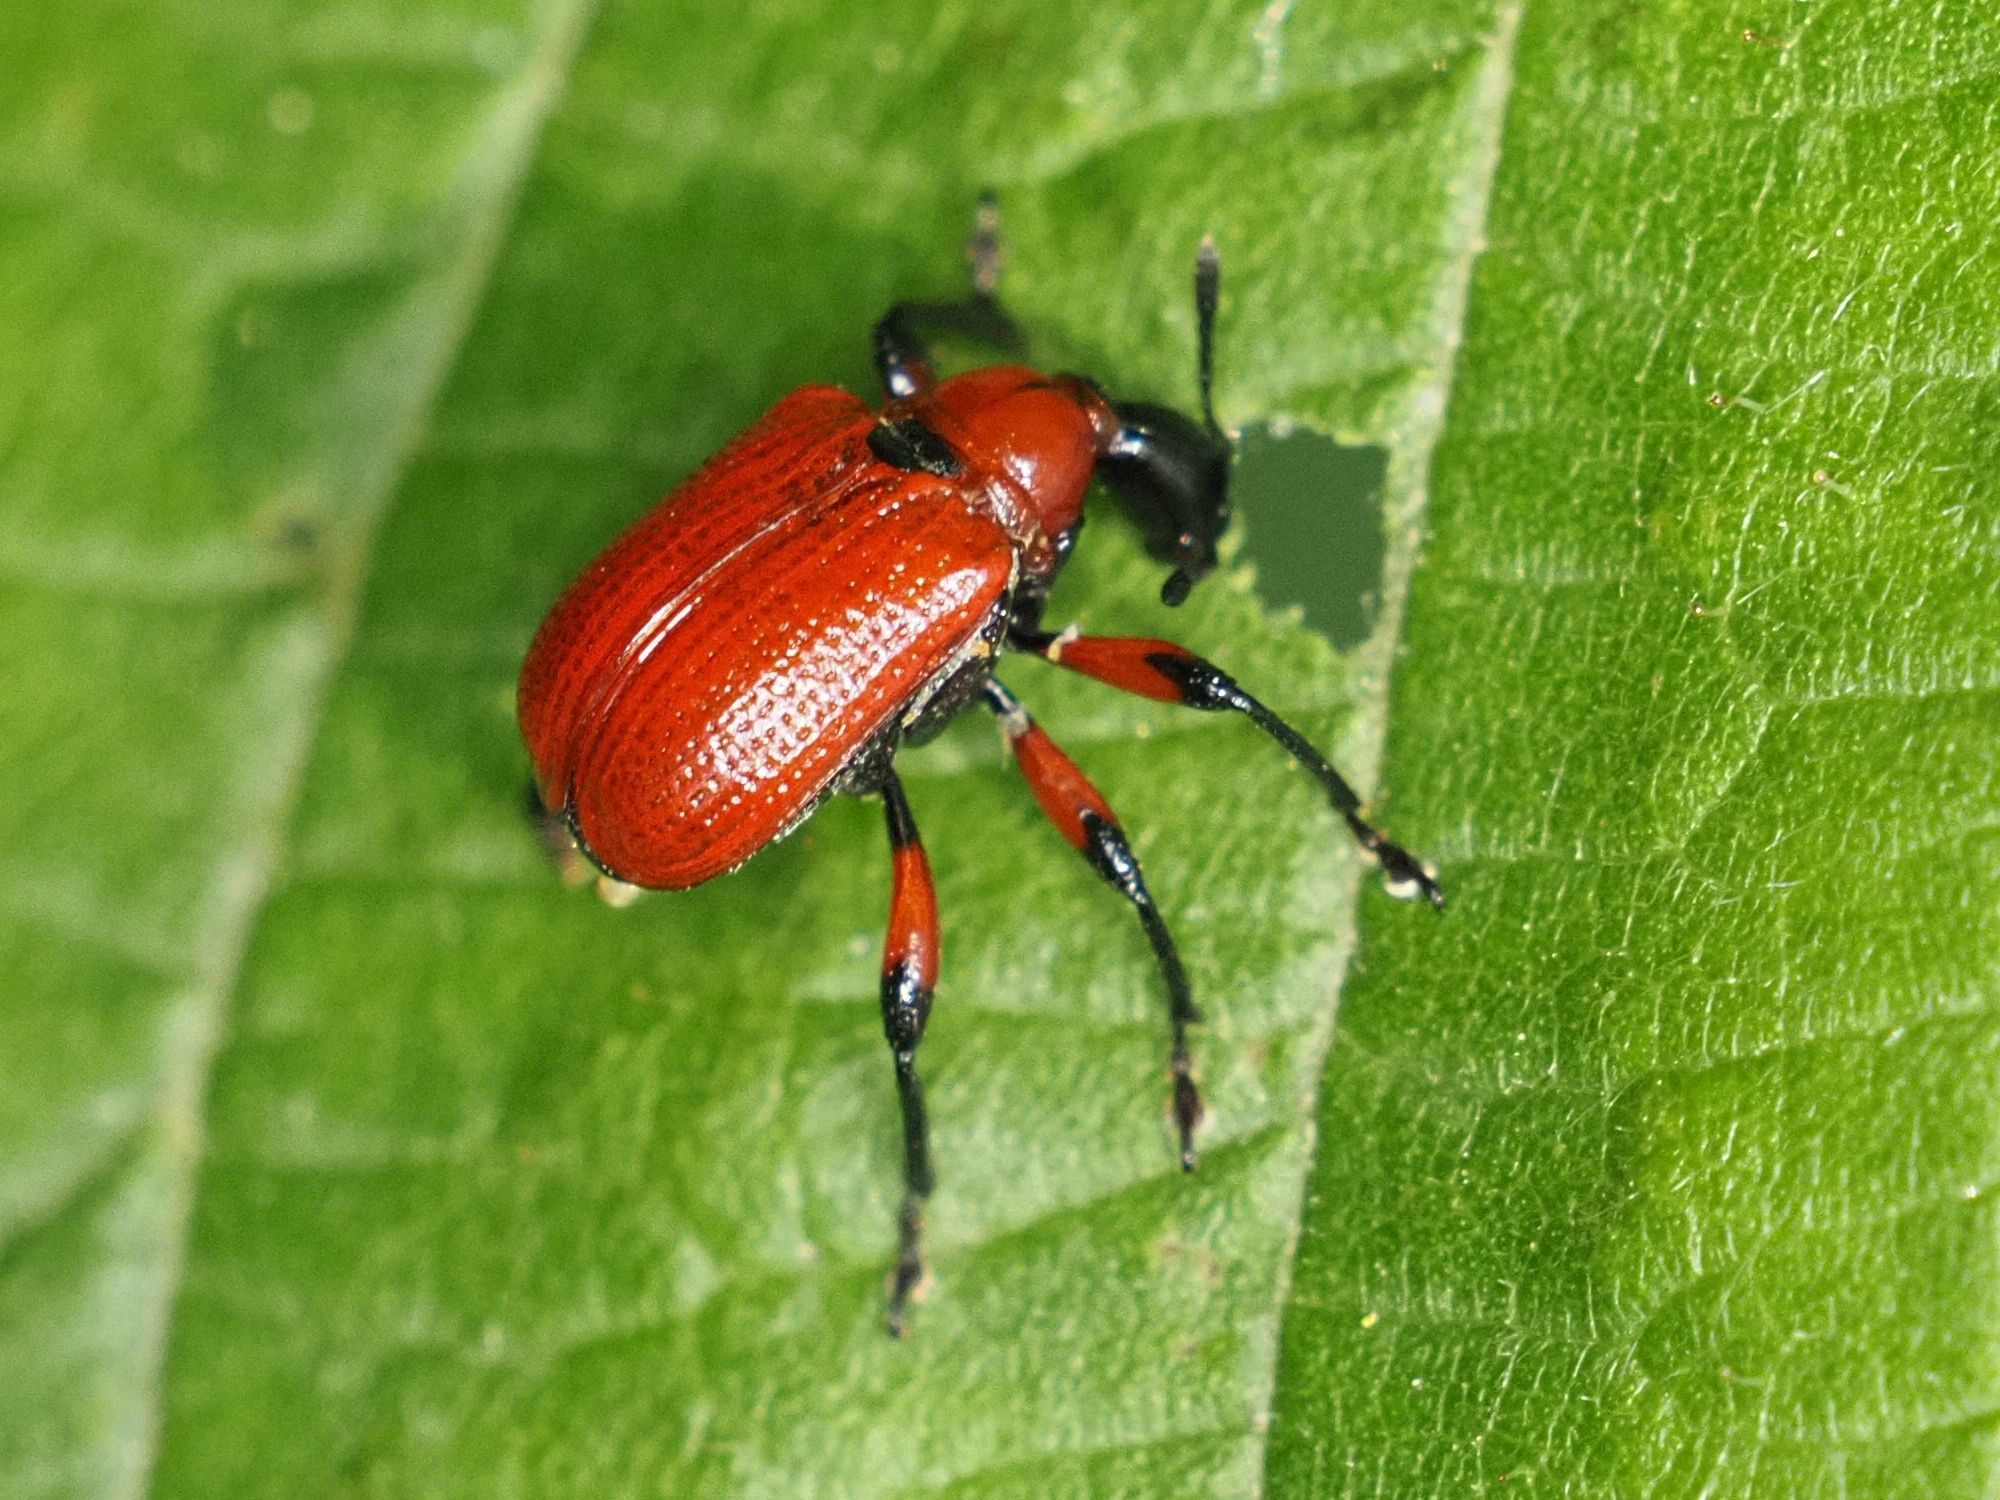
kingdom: Animalia
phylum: Arthropoda
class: Insecta
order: Coleoptera
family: Attelabidae
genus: Apoderus
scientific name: Apoderus coryli
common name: Hazel leaf roller
